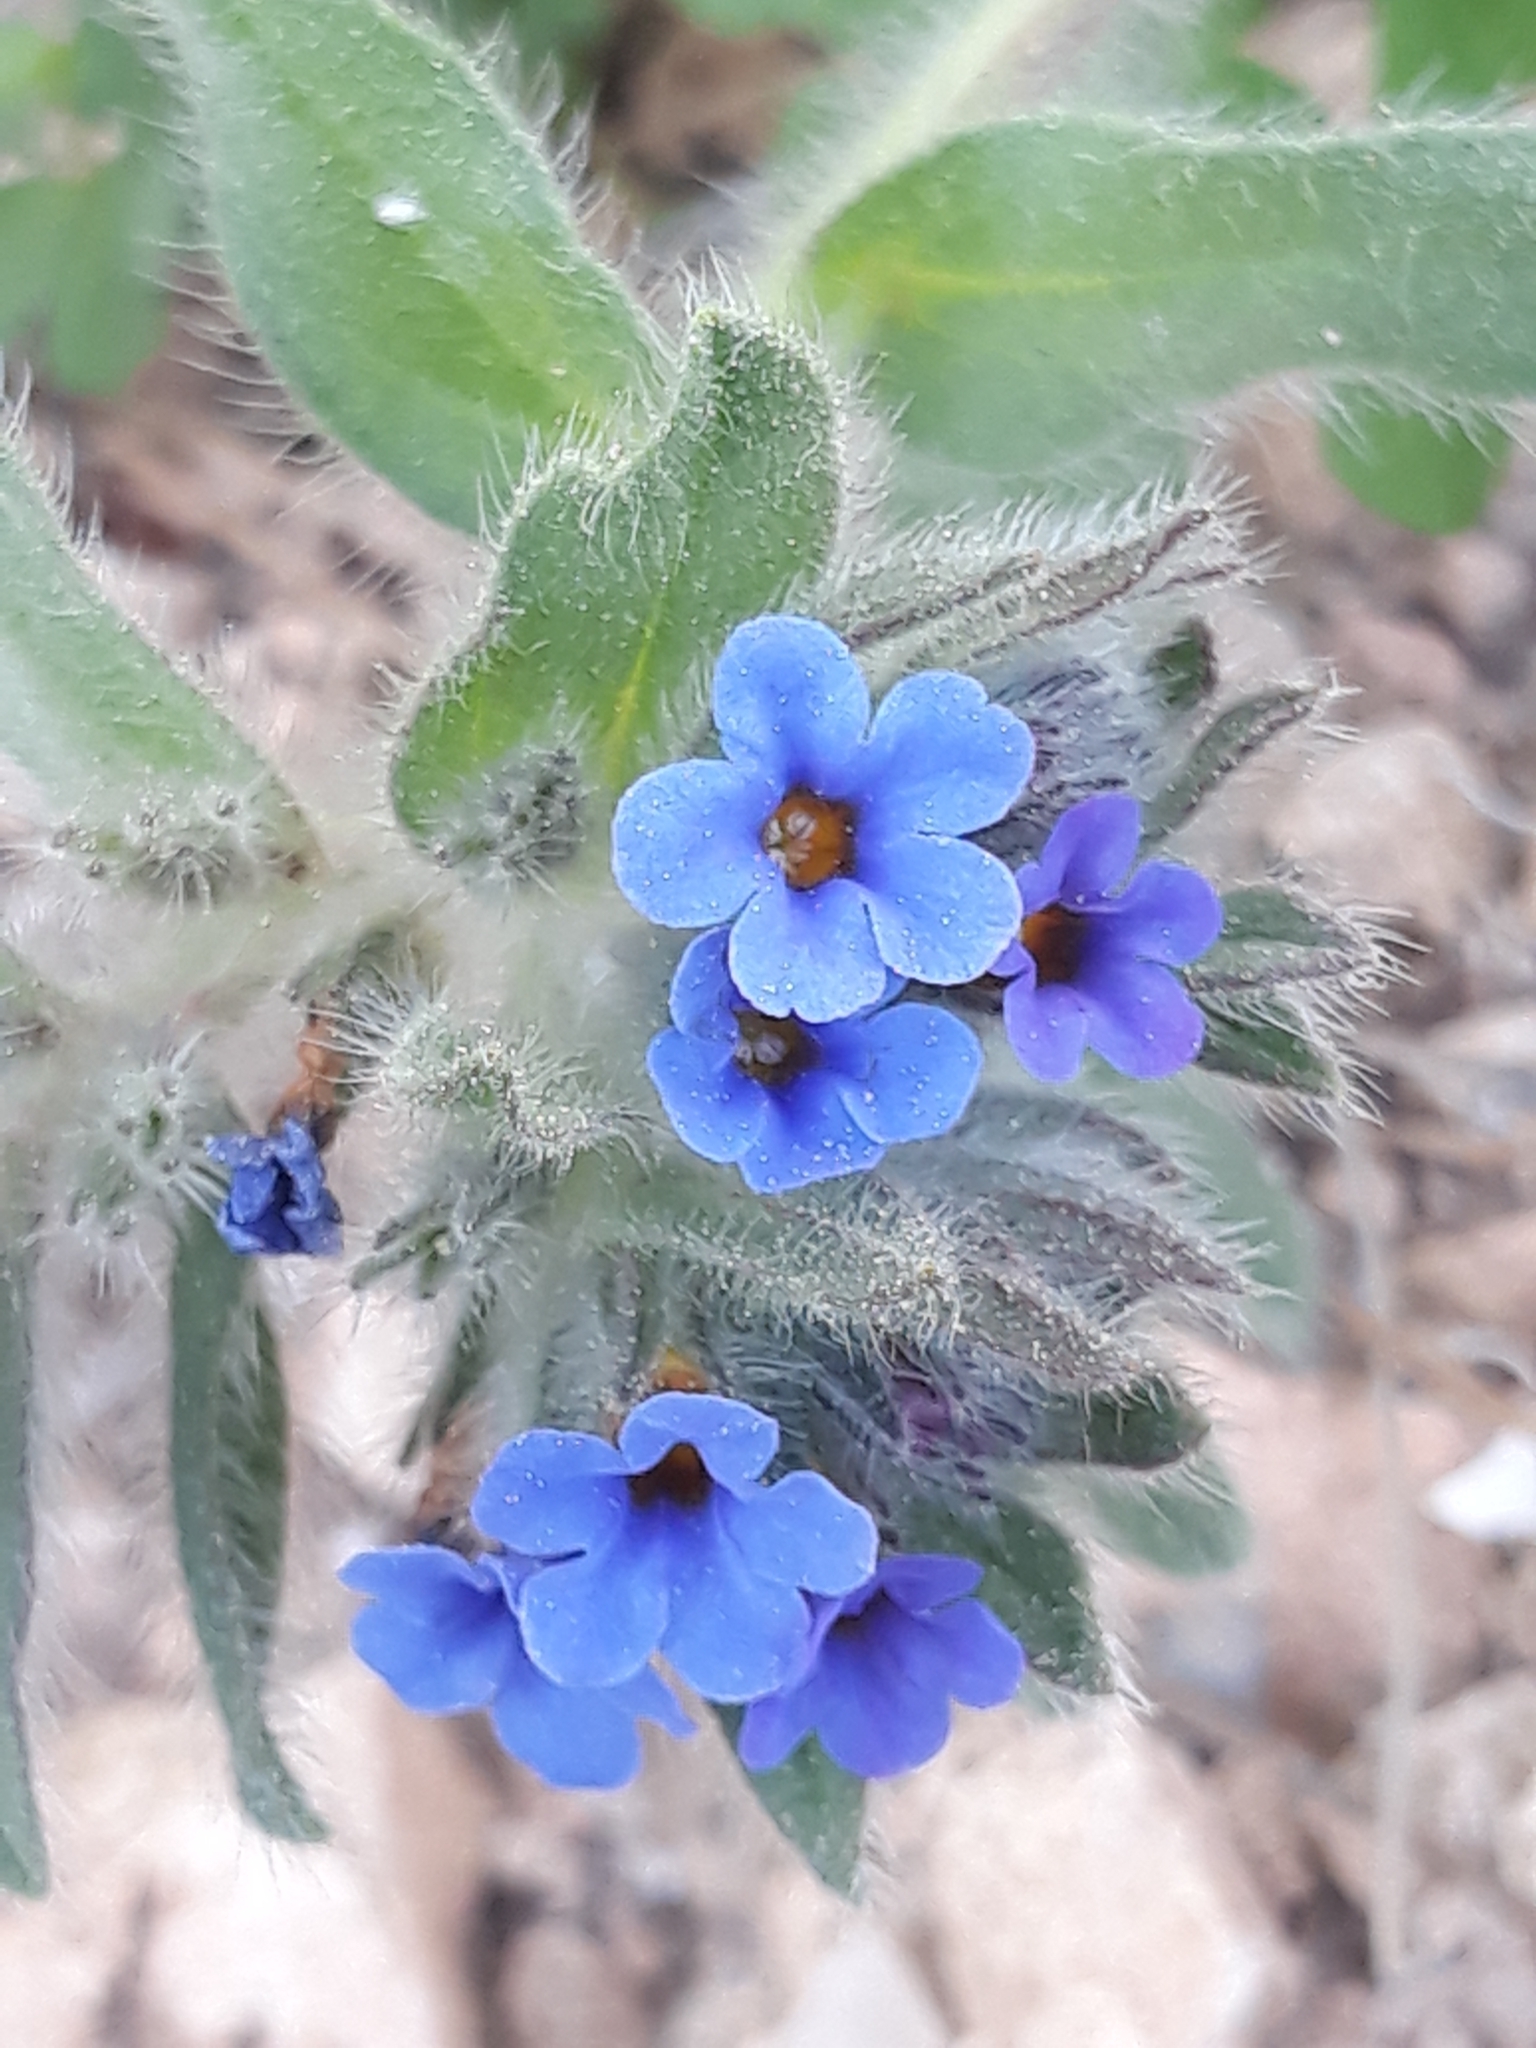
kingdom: Plantae
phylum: Tracheophyta
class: Magnoliopsida
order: Boraginales
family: Boraginaceae
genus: Alkanna
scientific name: Alkanna tinctoria
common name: Dyer's-alkanet
